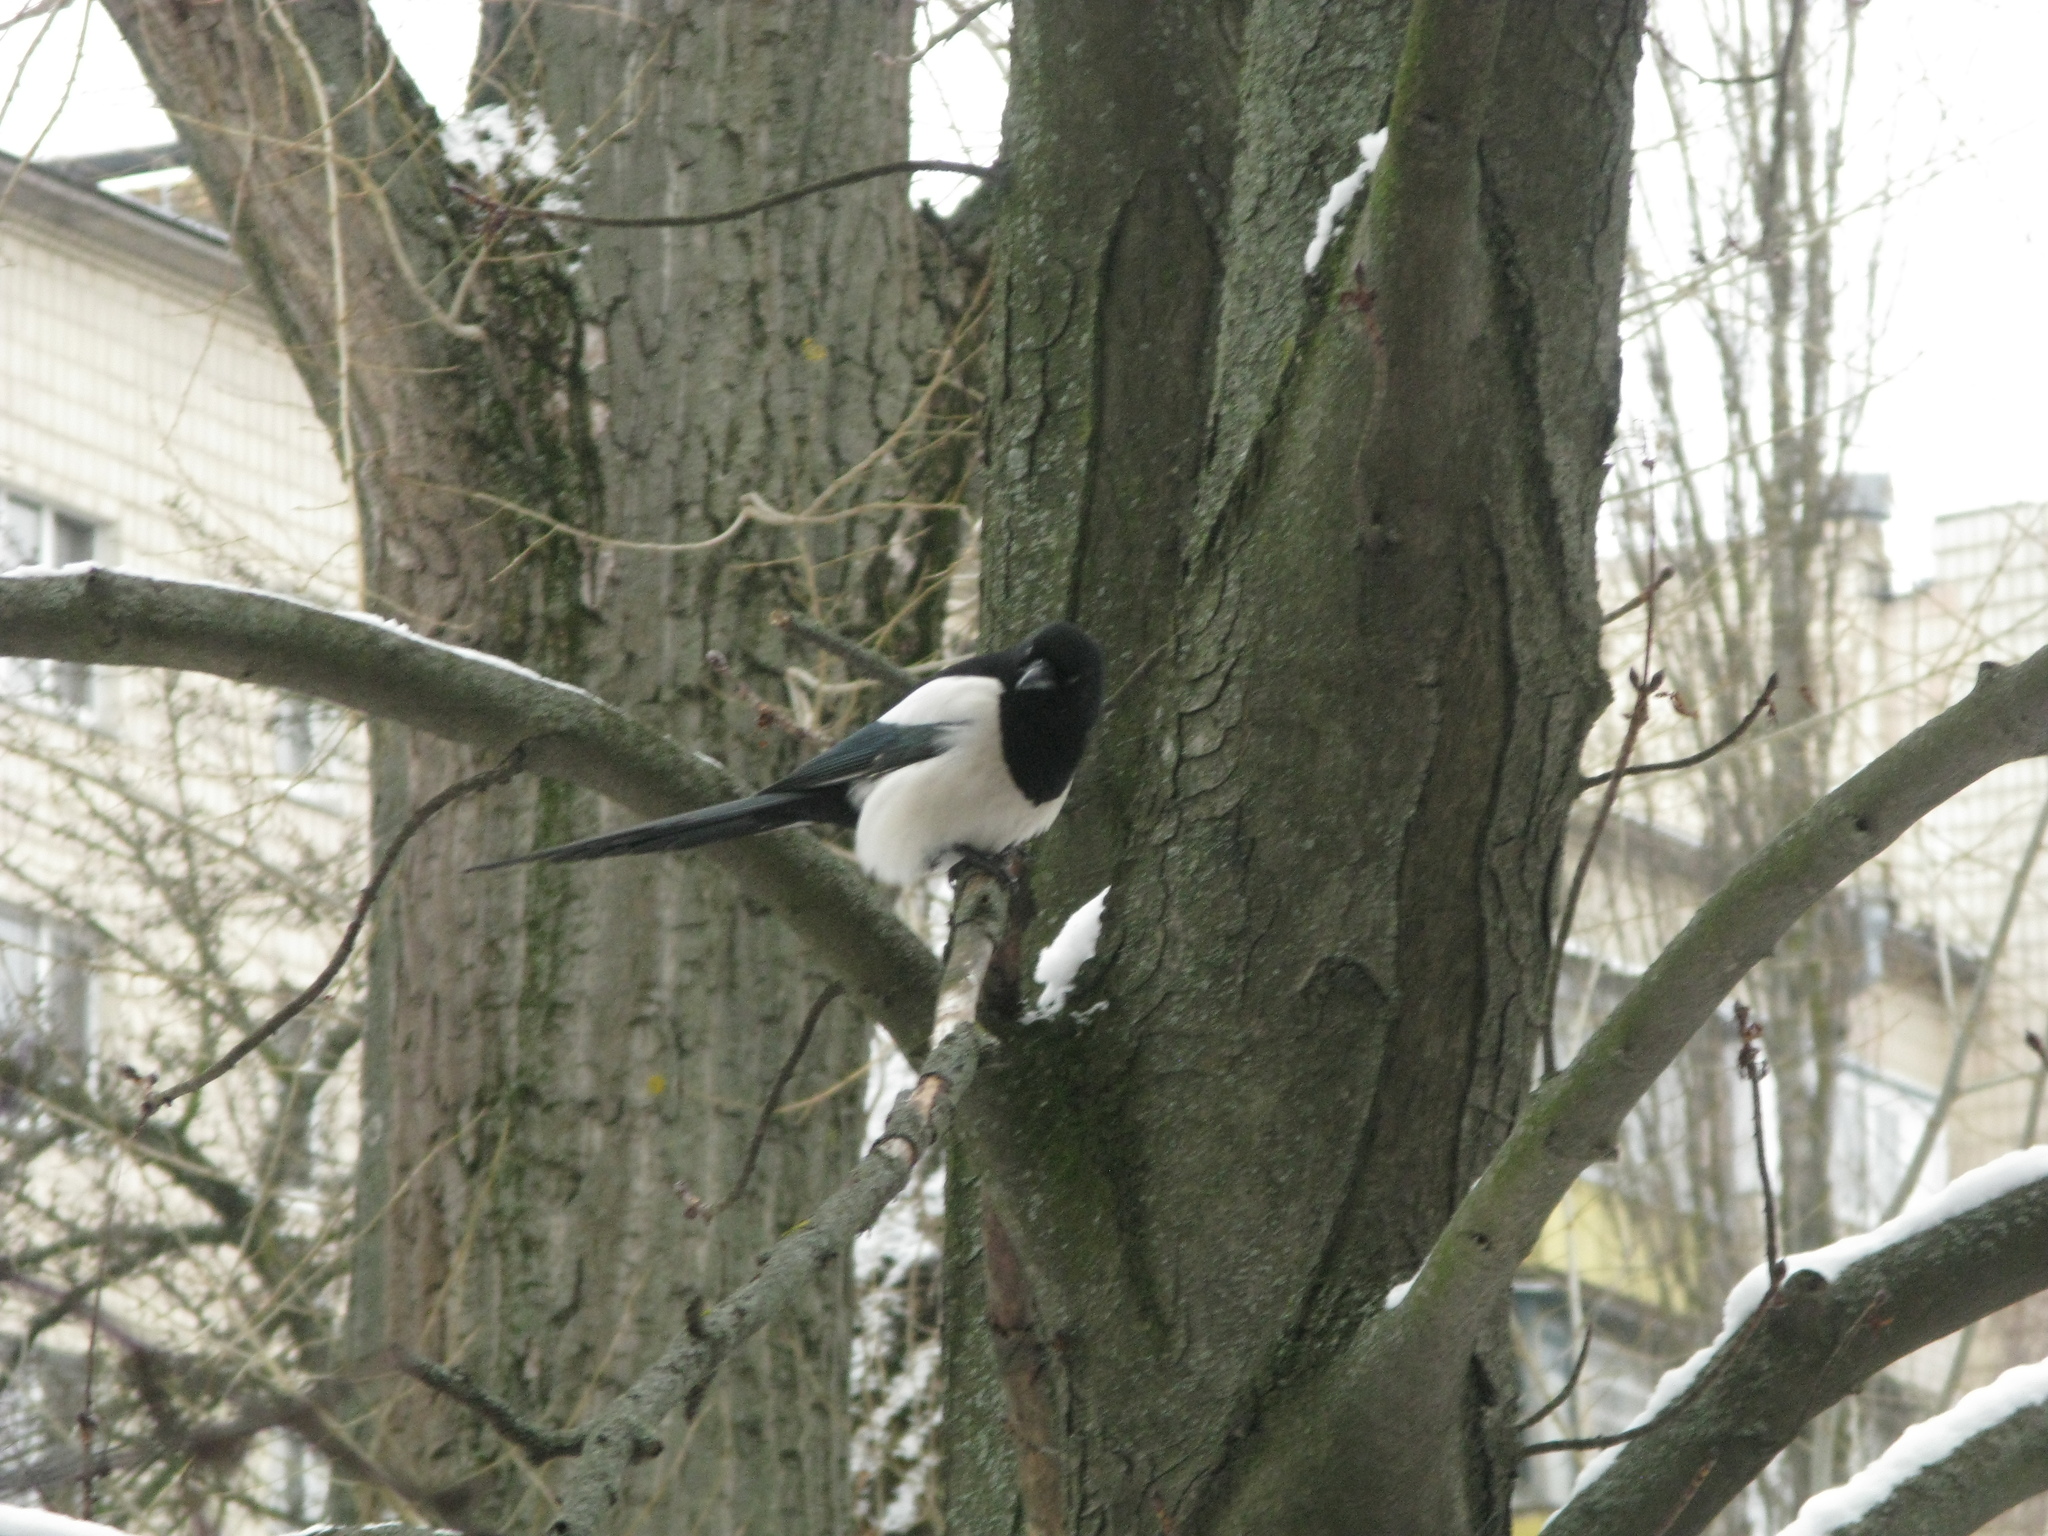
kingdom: Animalia
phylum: Chordata
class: Aves
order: Passeriformes
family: Corvidae
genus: Pica
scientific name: Pica pica
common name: Eurasian magpie
